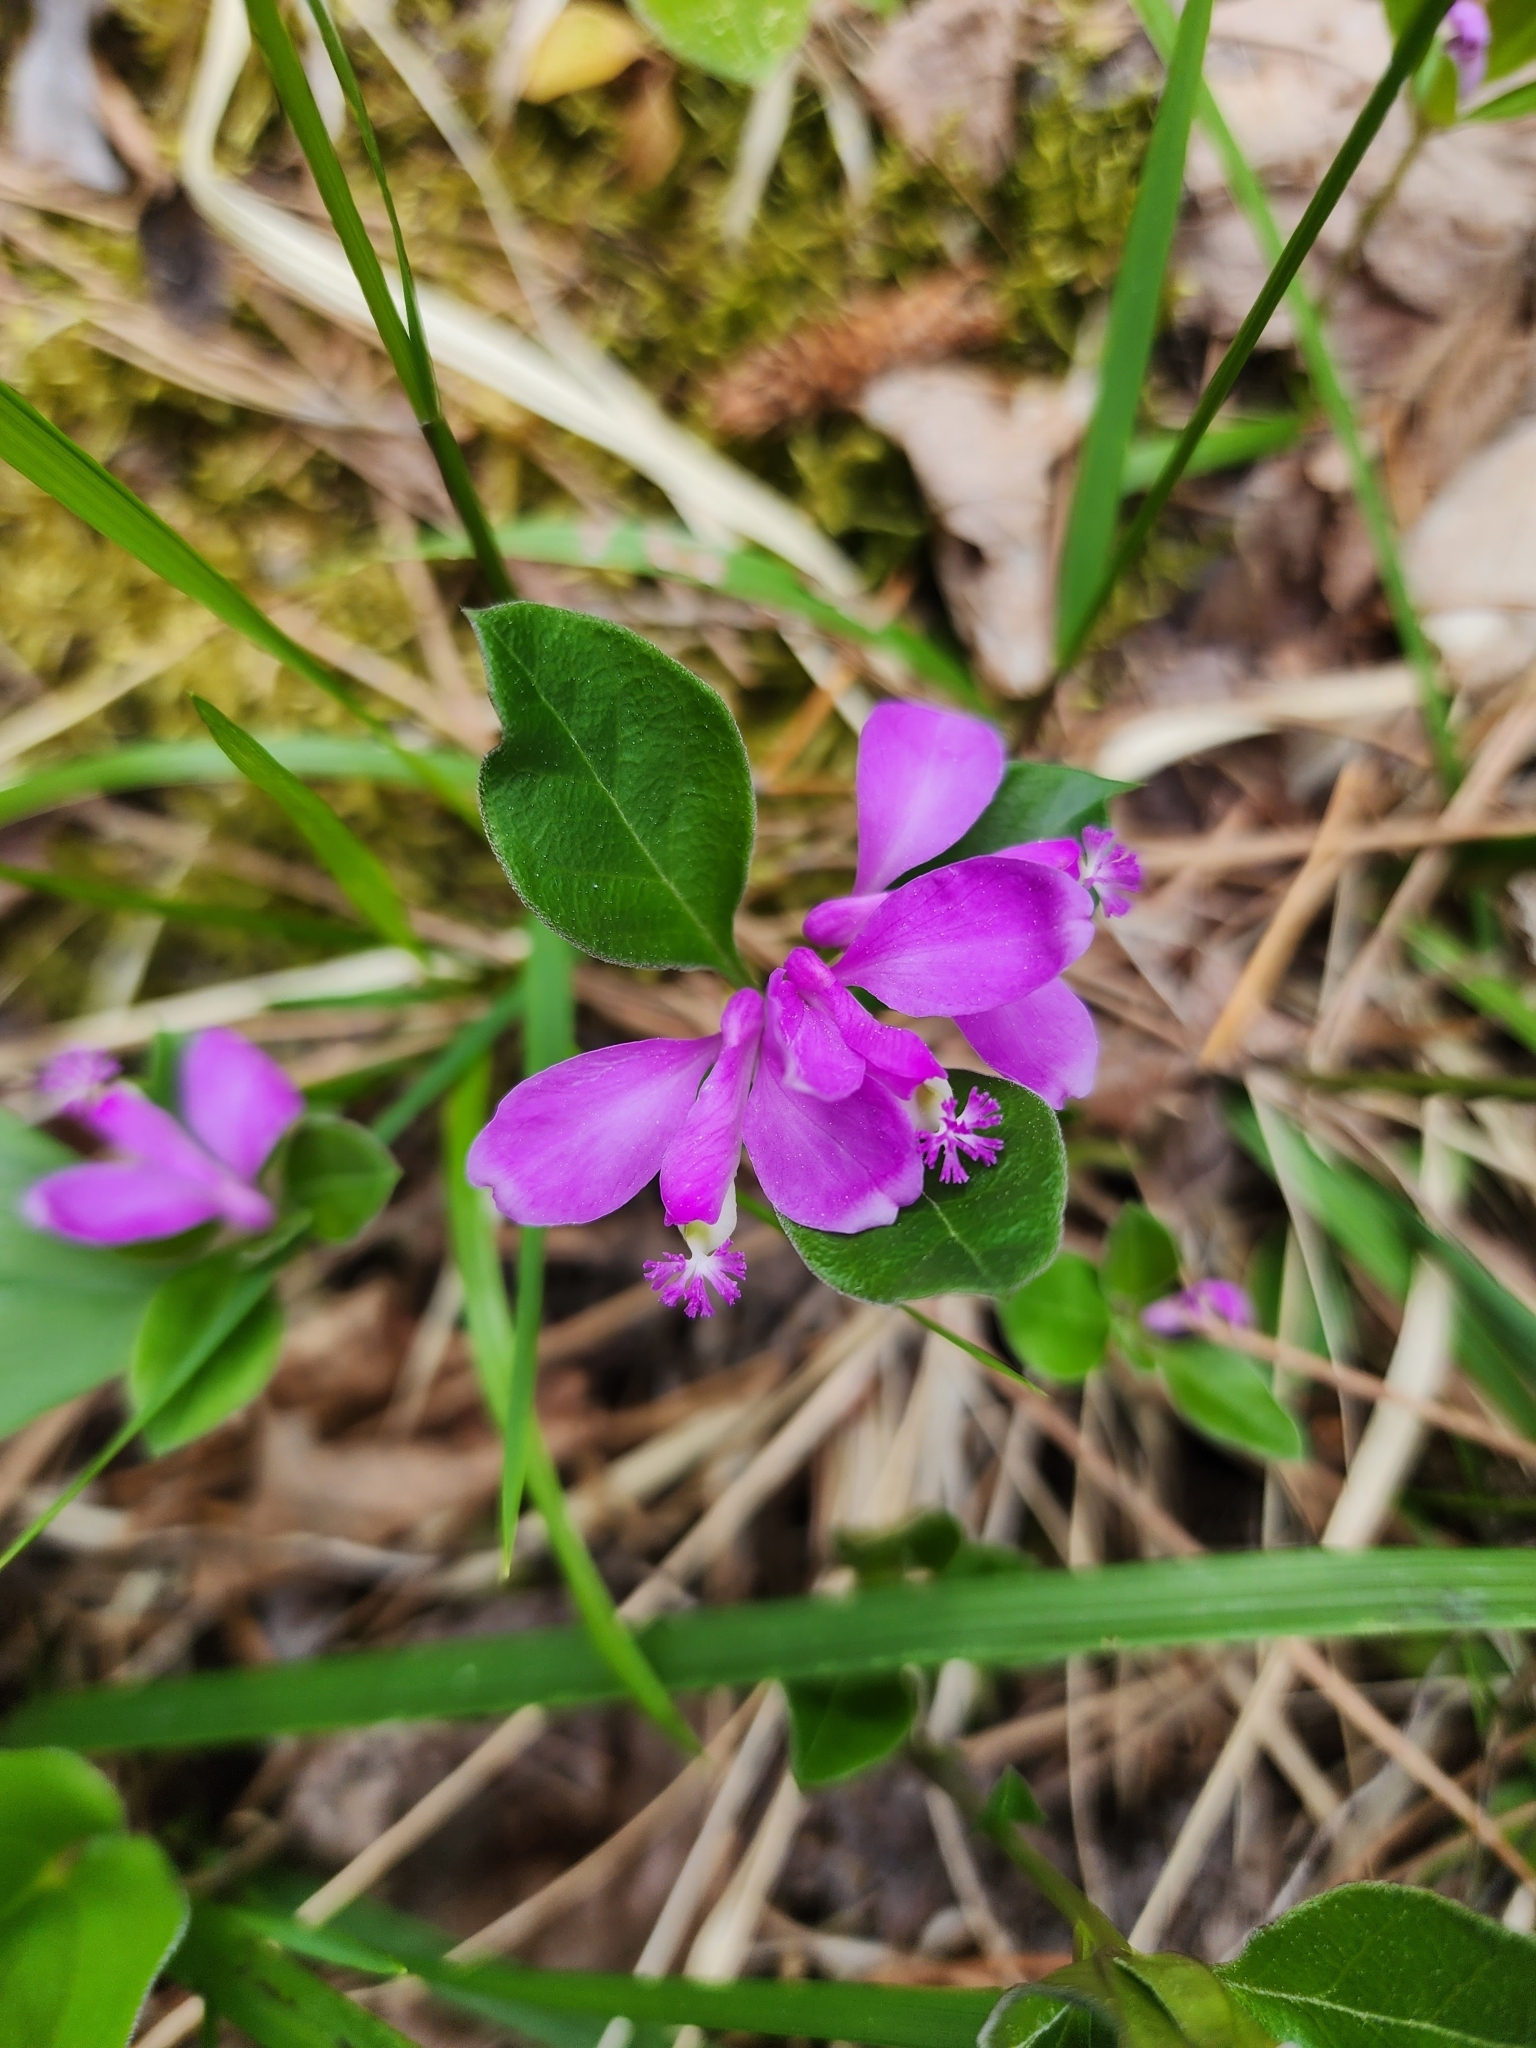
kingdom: Plantae
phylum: Tracheophyta
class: Magnoliopsida
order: Fabales
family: Polygalaceae
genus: Polygaloides
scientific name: Polygaloides paucifolia
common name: Bird-on-the-wing
